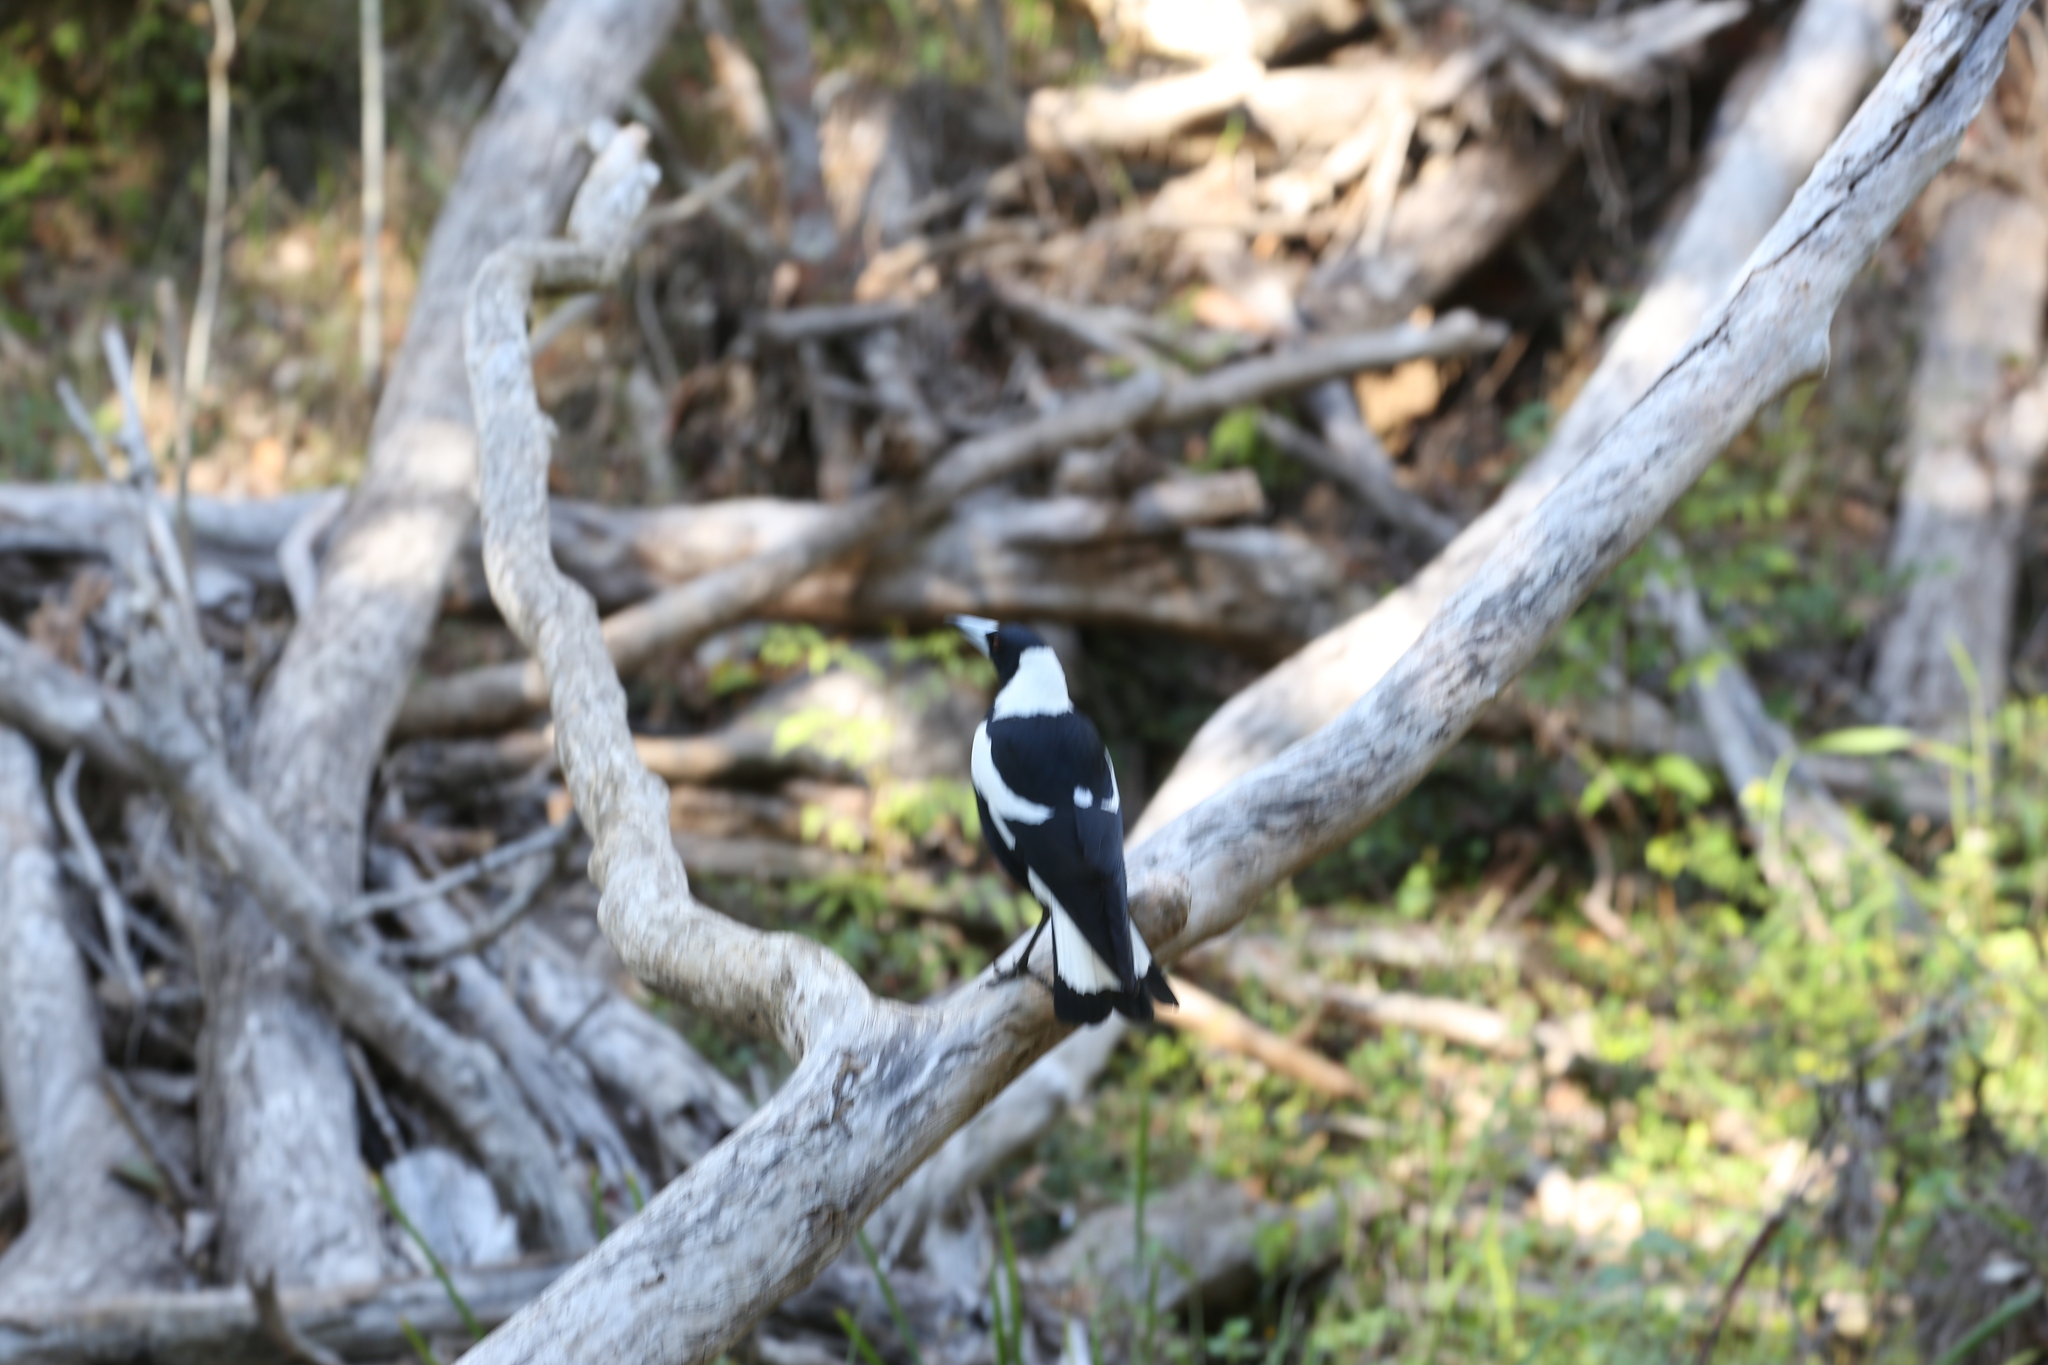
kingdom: Animalia
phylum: Chordata
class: Aves
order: Passeriformes
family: Cracticidae
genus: Gymnorhina
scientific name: Gymnorhina tibicen
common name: Australian magpie
